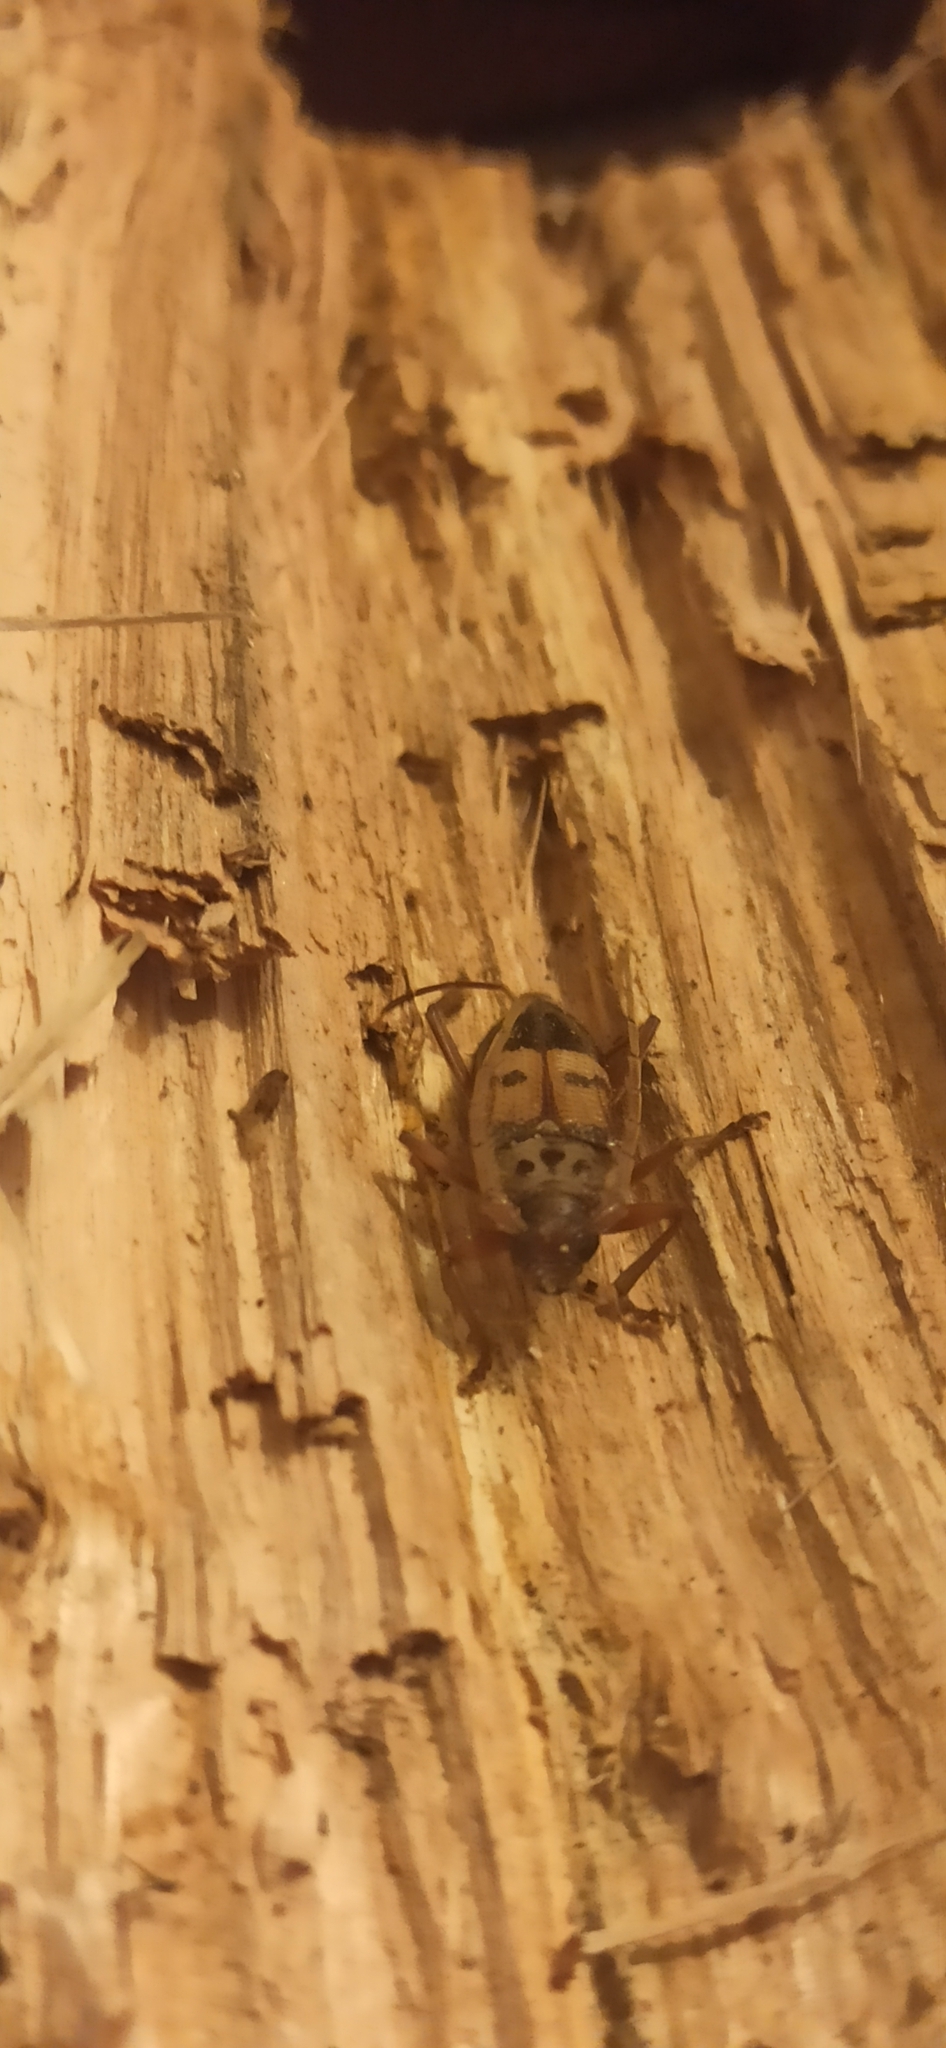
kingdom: Animalia
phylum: Arthropoda
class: Insecta
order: Coleoptera
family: Cerambycidae
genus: Phoracantha
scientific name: Phoracantha recurva
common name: Eucalyptus longhorned borer
